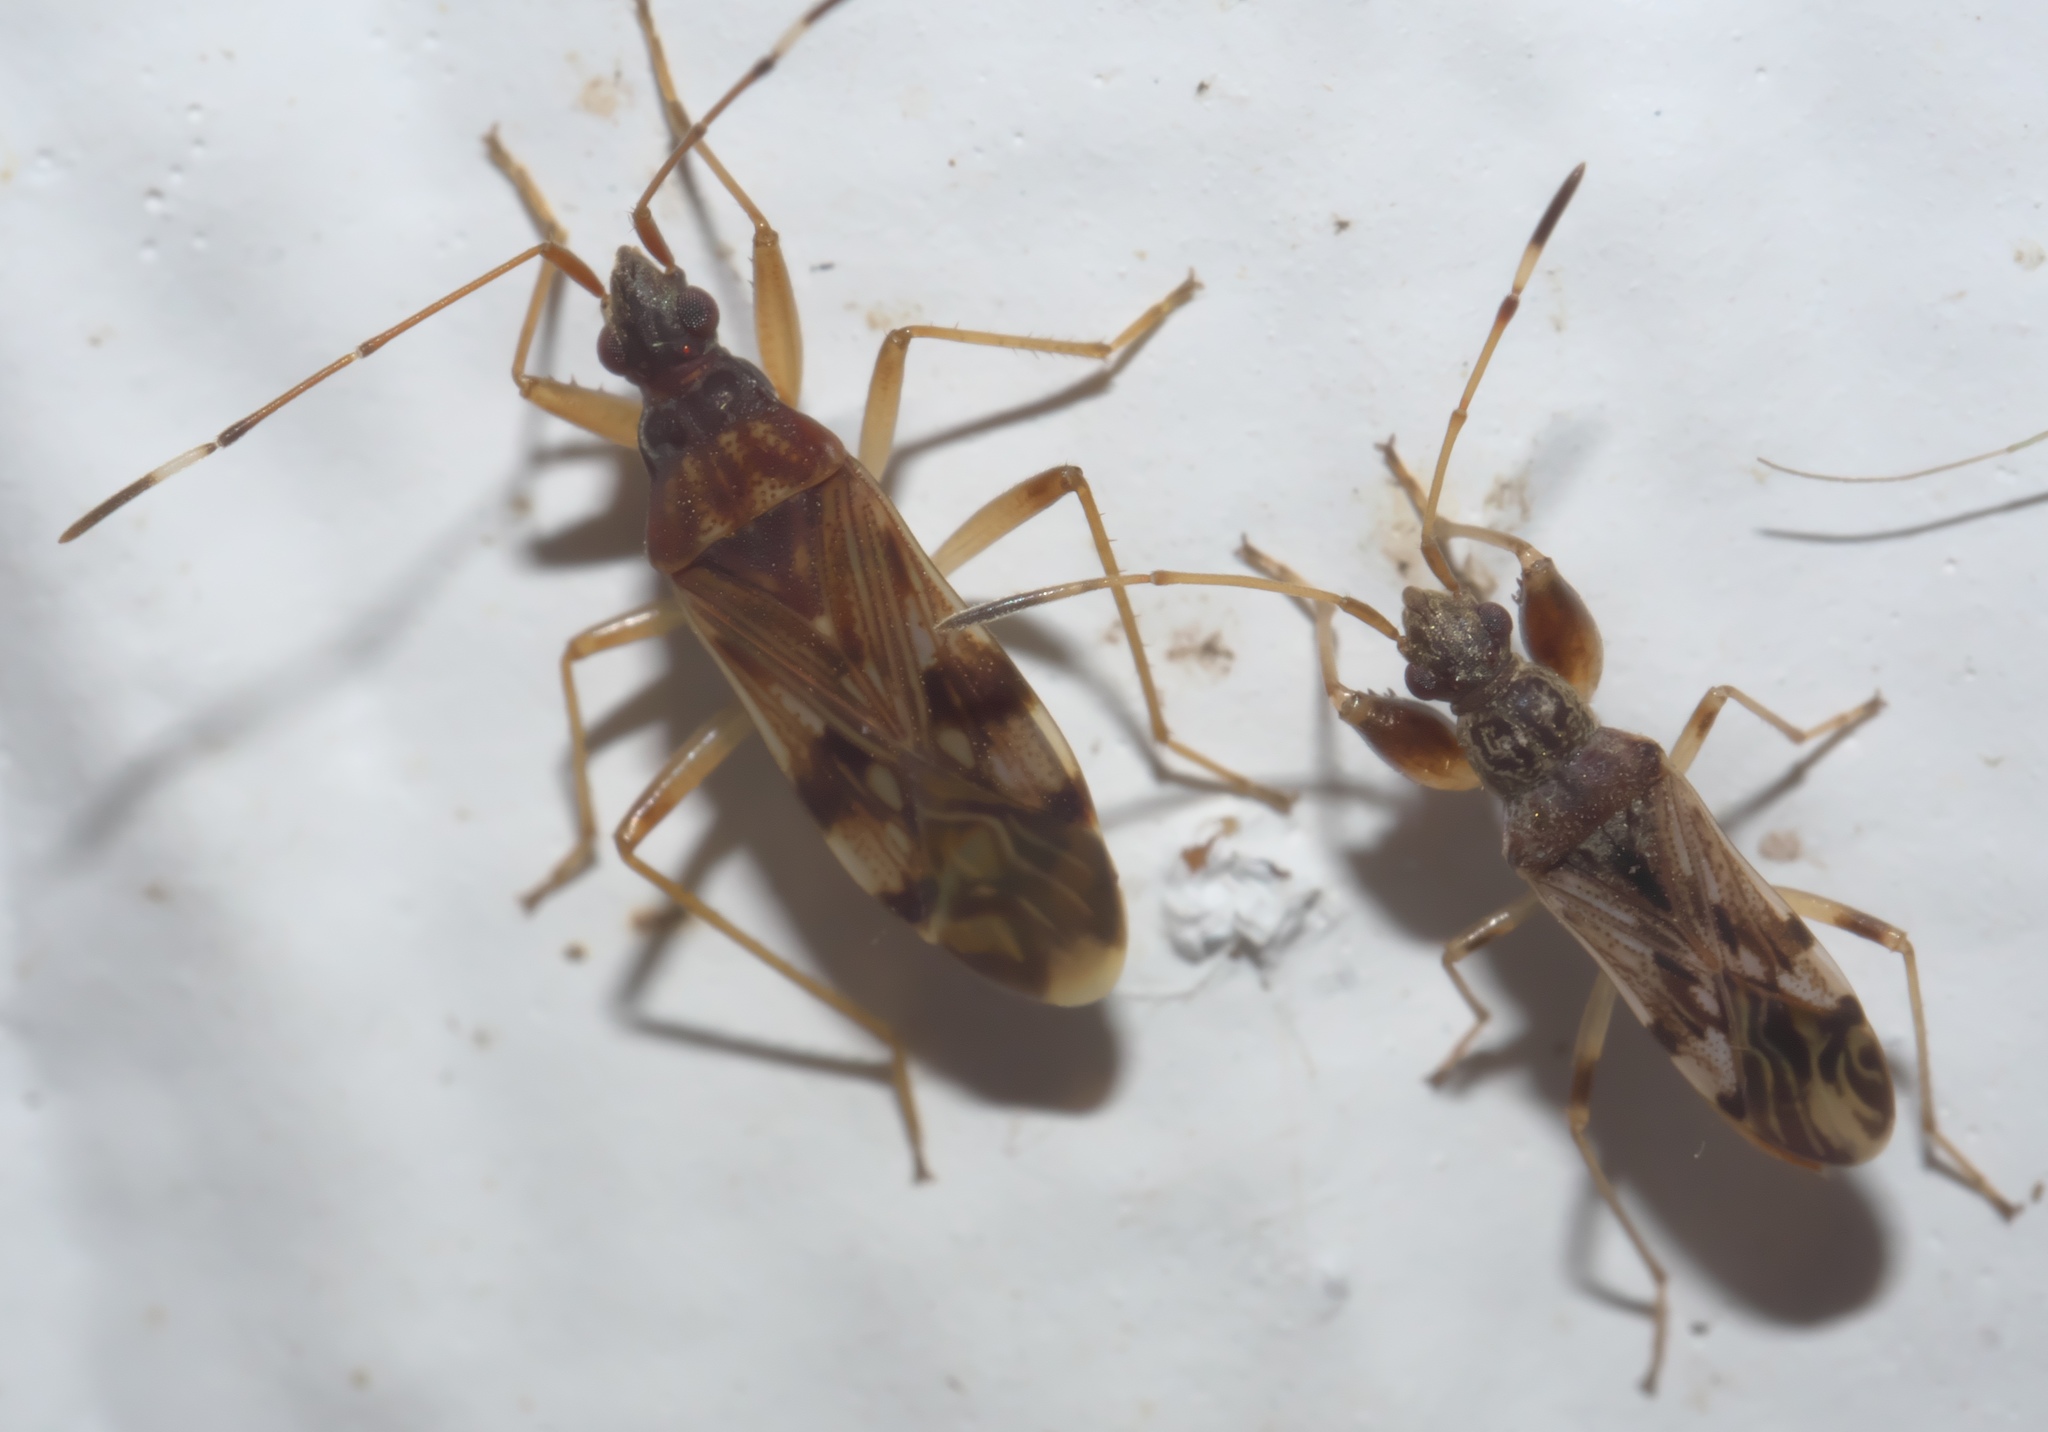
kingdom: Animalia
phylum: Arthropoda
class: Insecta
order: Hemiptera
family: Rhyparochromidae
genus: Neopamera
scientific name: Neopamera albocincta
